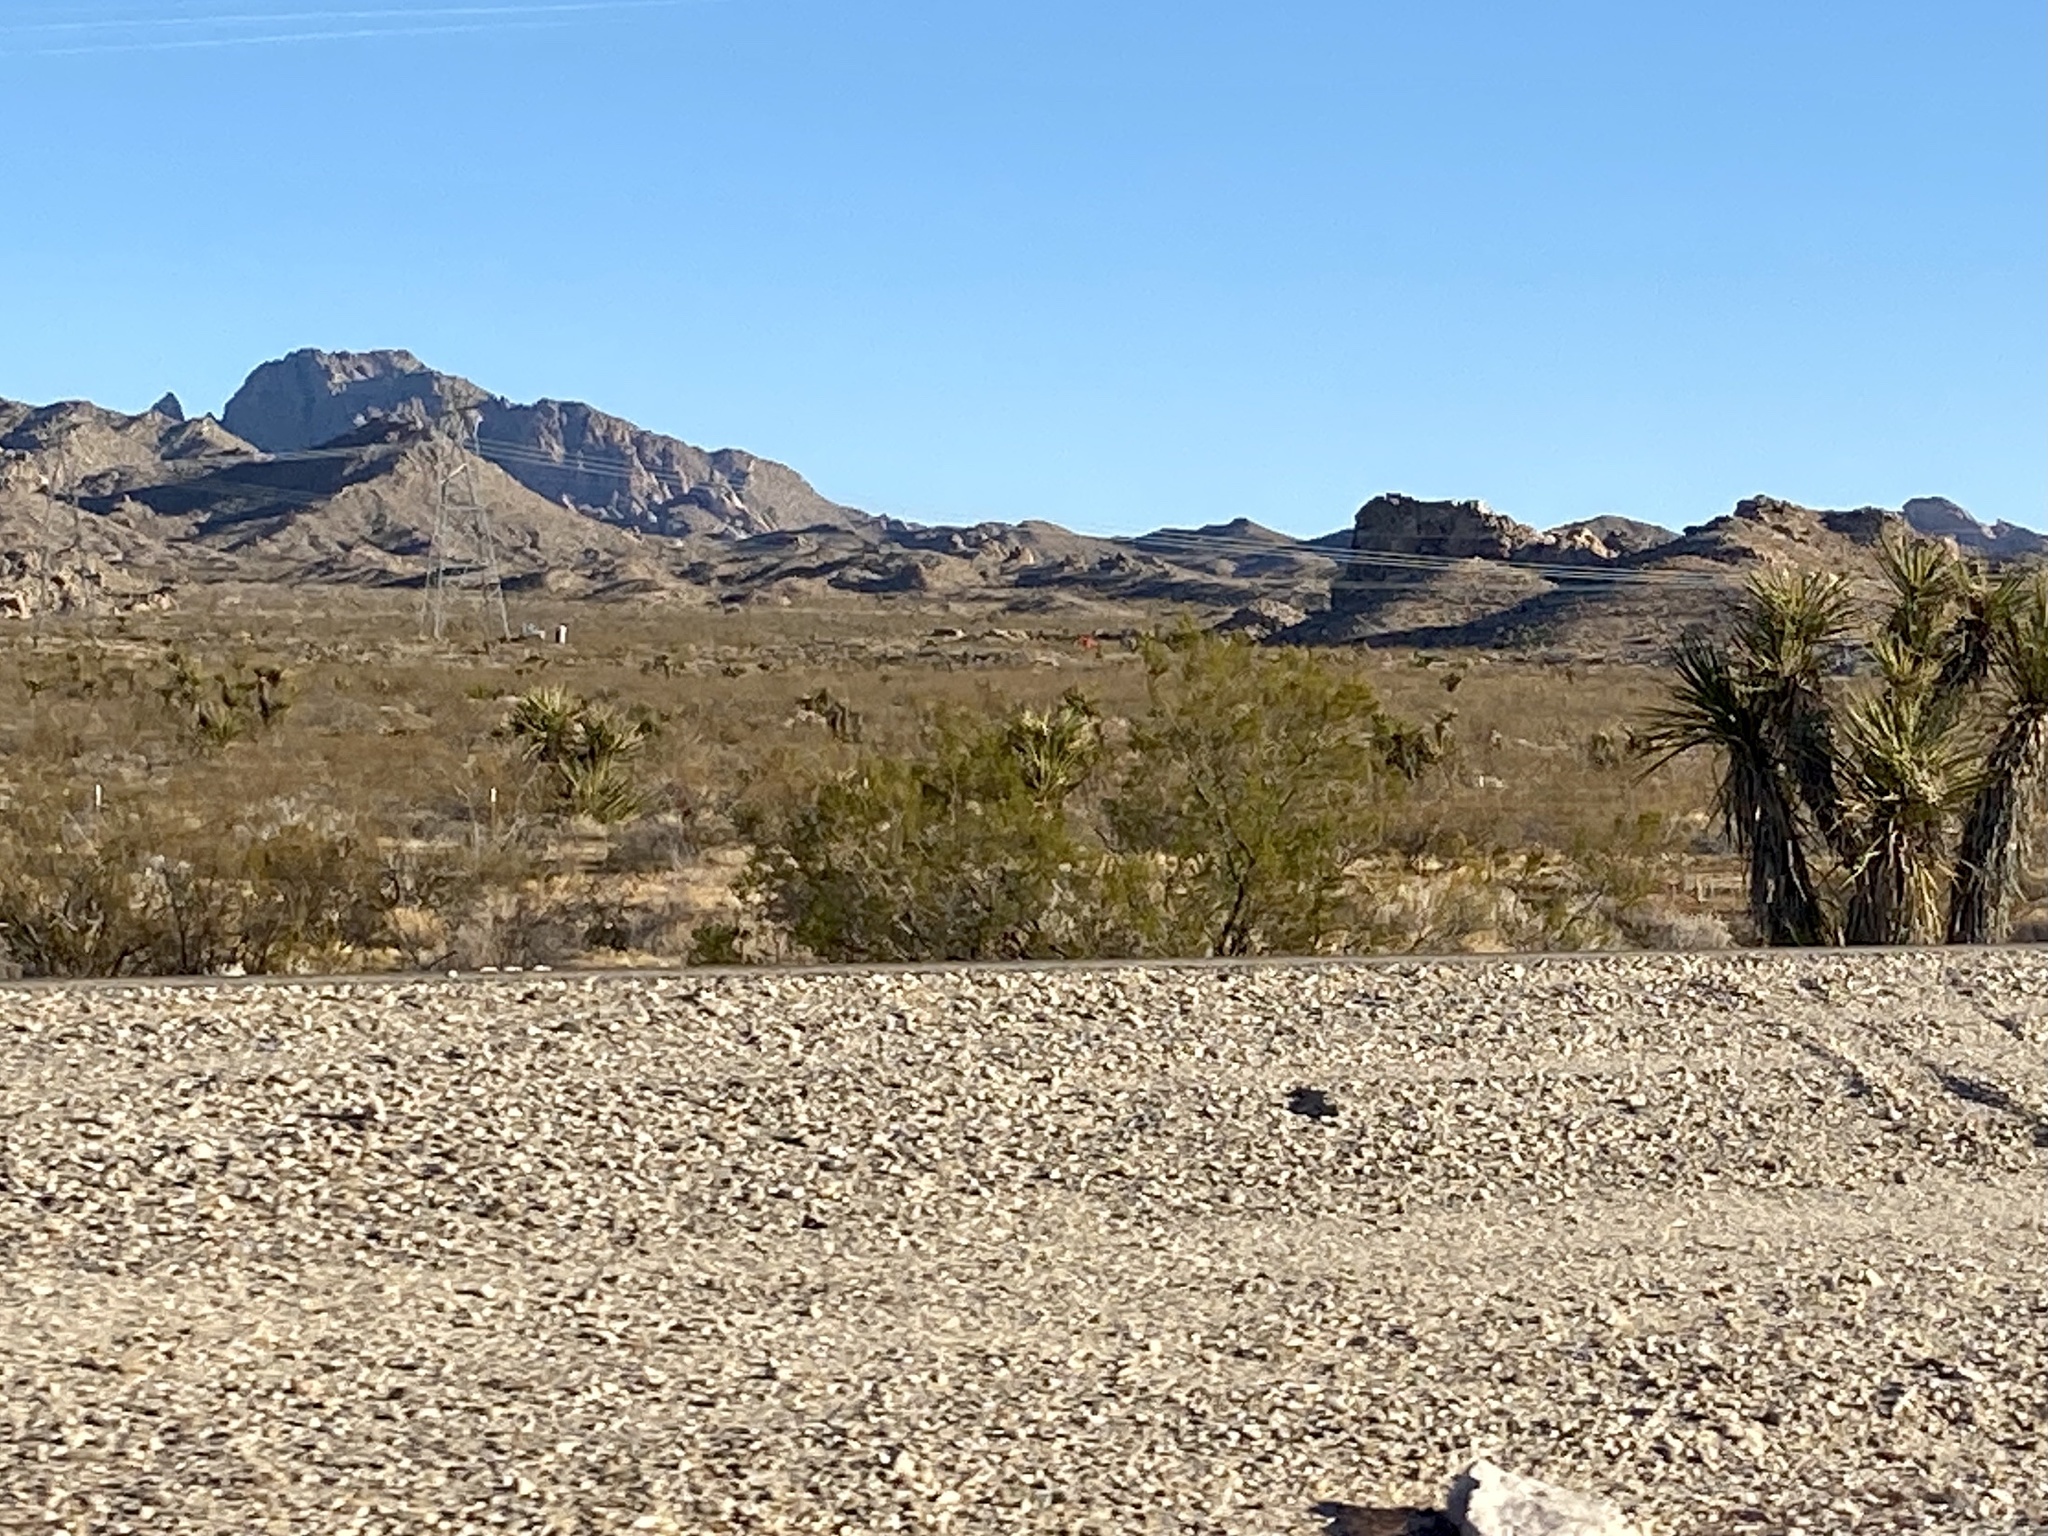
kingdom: Plantae
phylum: Tracheophyta
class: Magnoliopsida
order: Zygophyllales
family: Zygophyllaceae
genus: Larrea
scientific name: Larrea tridentata
